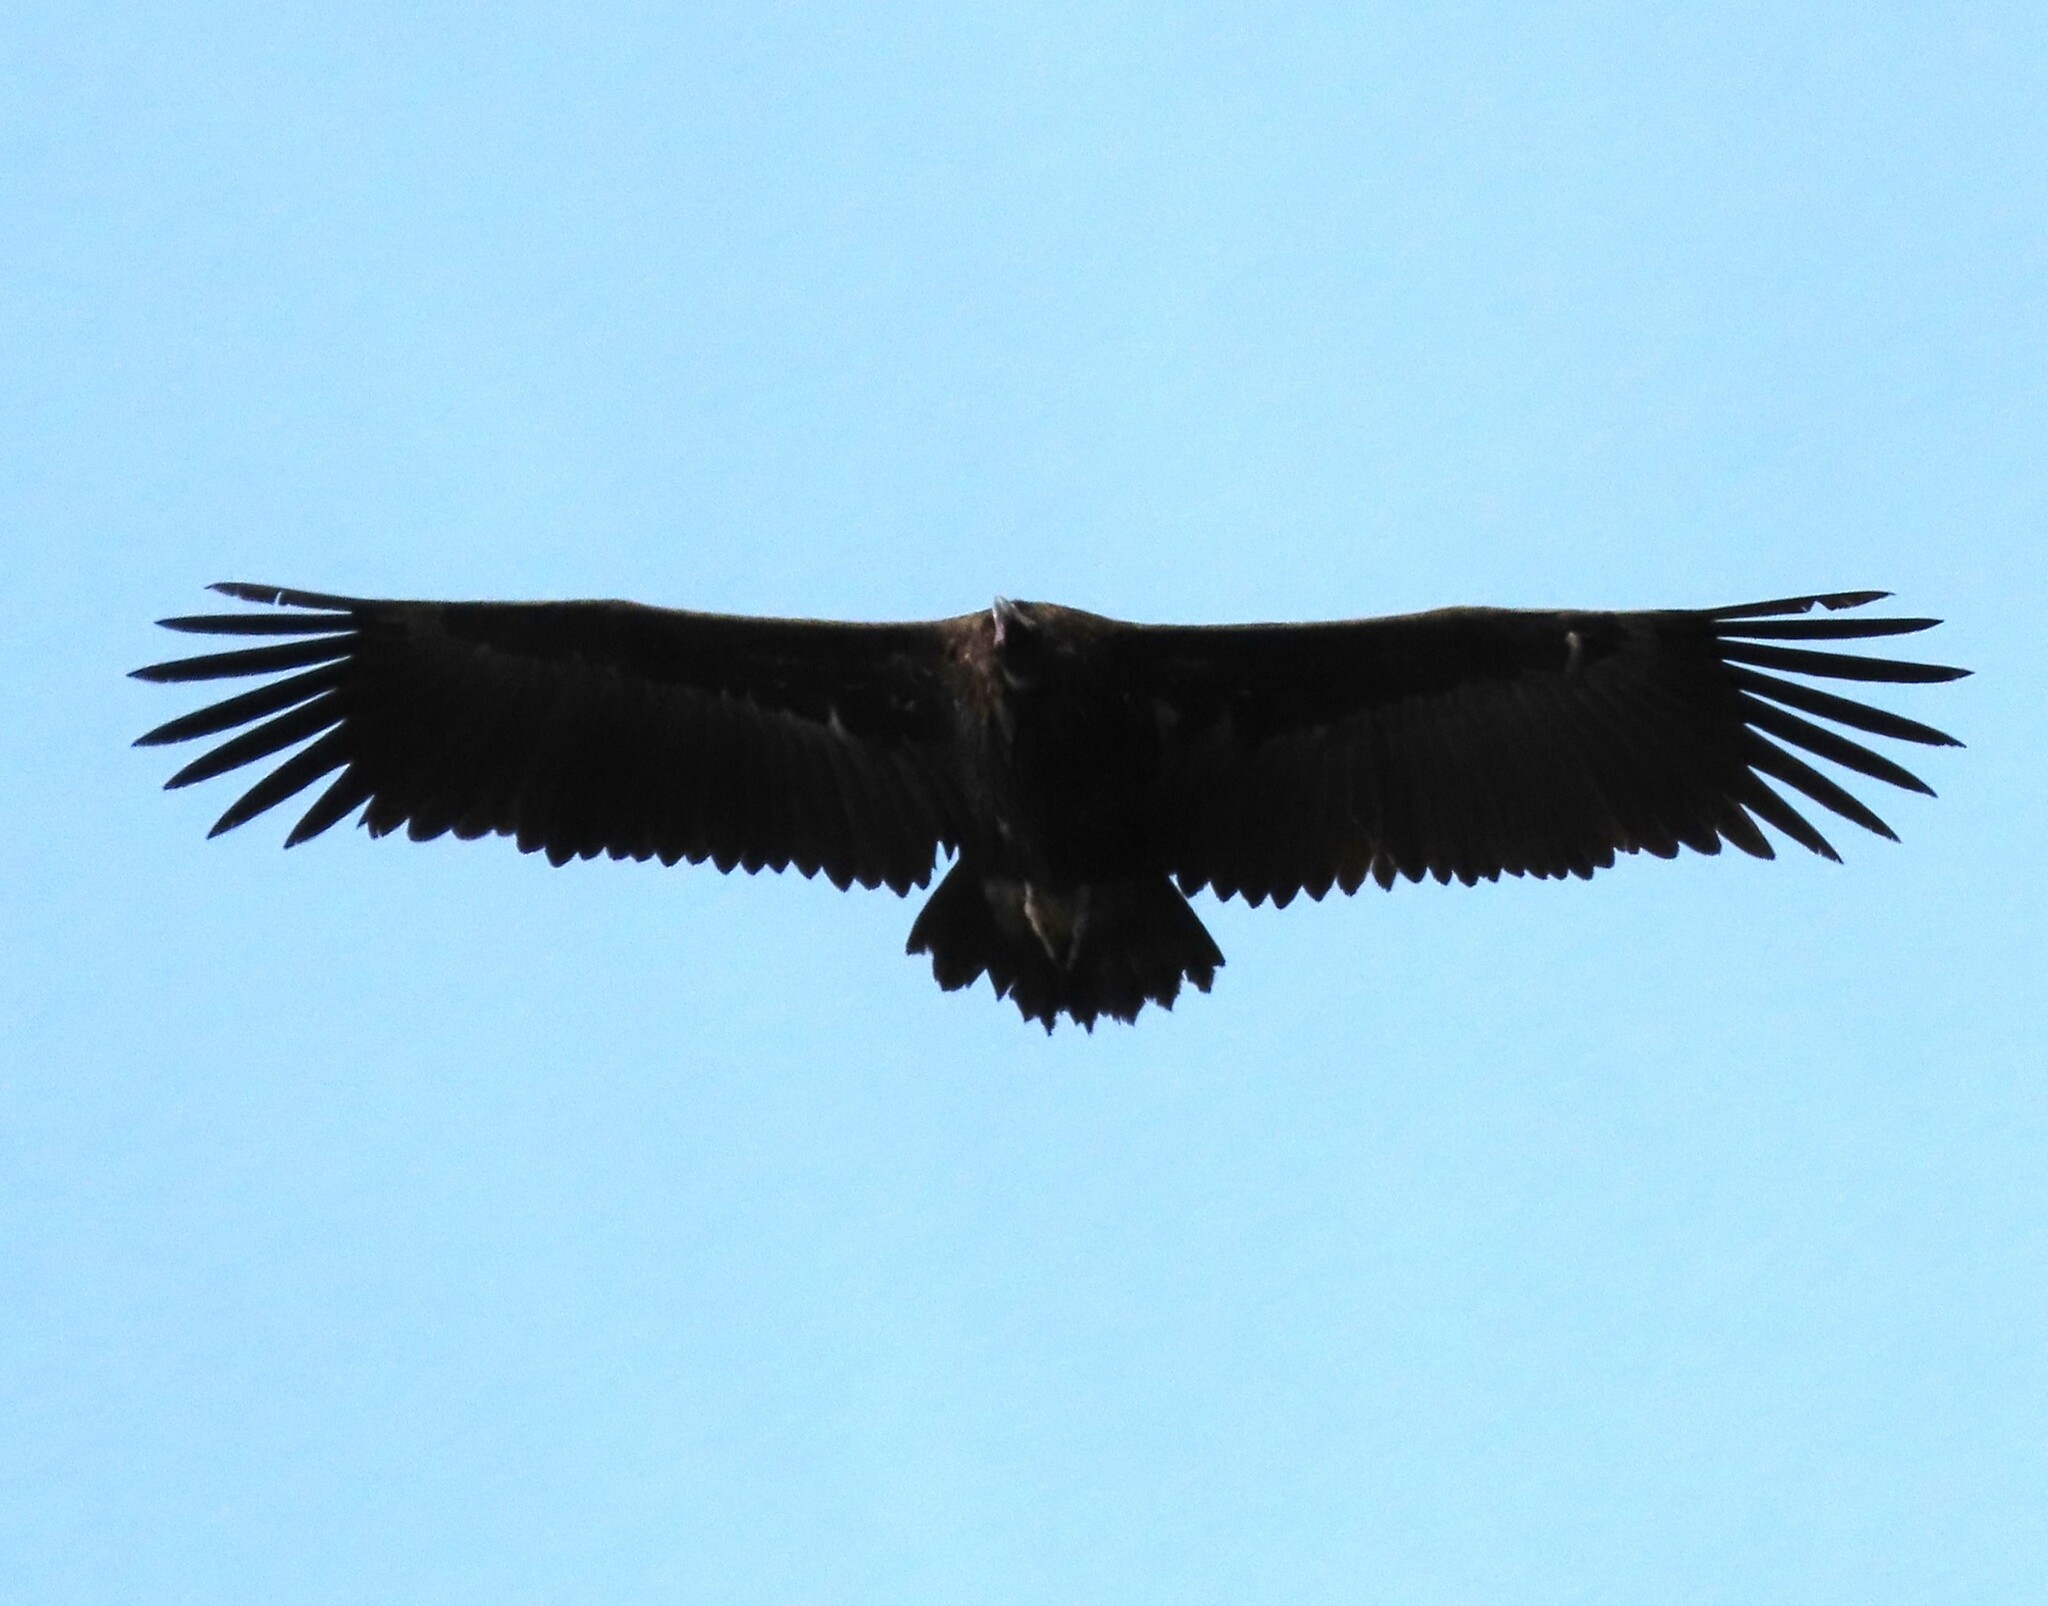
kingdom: Animalia
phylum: Chordata
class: Aves
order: Accipitriformes
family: Accipitridae
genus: Aegypius
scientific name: Aegypius monachus
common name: Cinereous vulture
